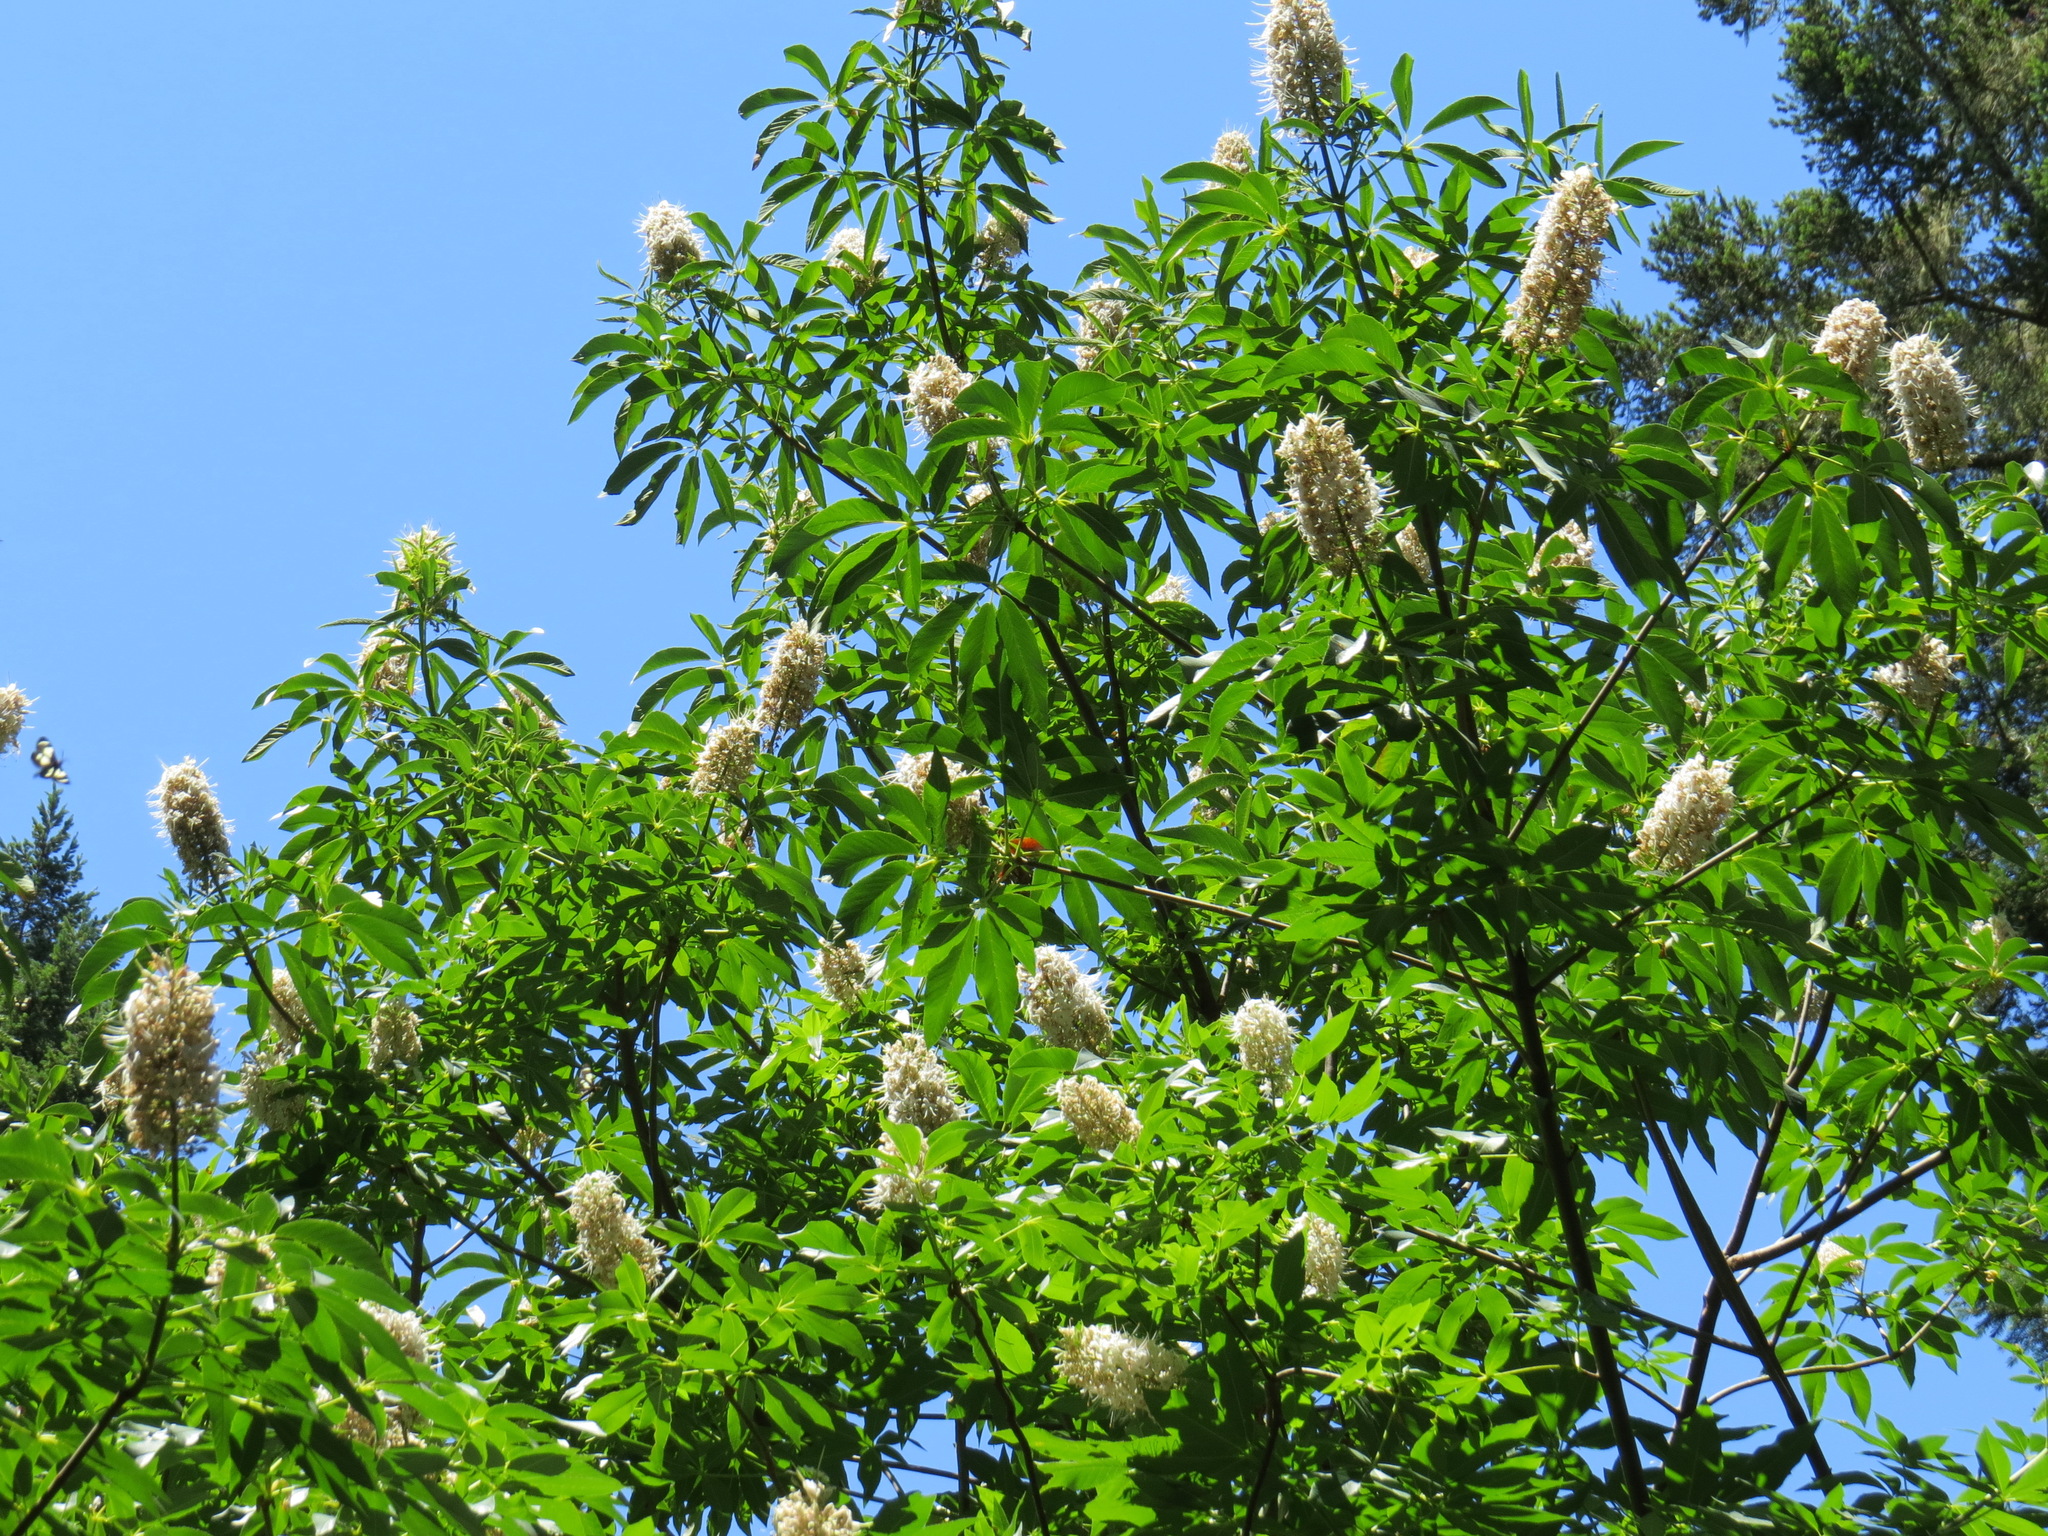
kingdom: Plantae
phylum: Tracheophyta
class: Magnoliopsida
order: Sapindales
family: Sapindaceae
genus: Aesculus
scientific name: Aesculus californica
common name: California buckeye
